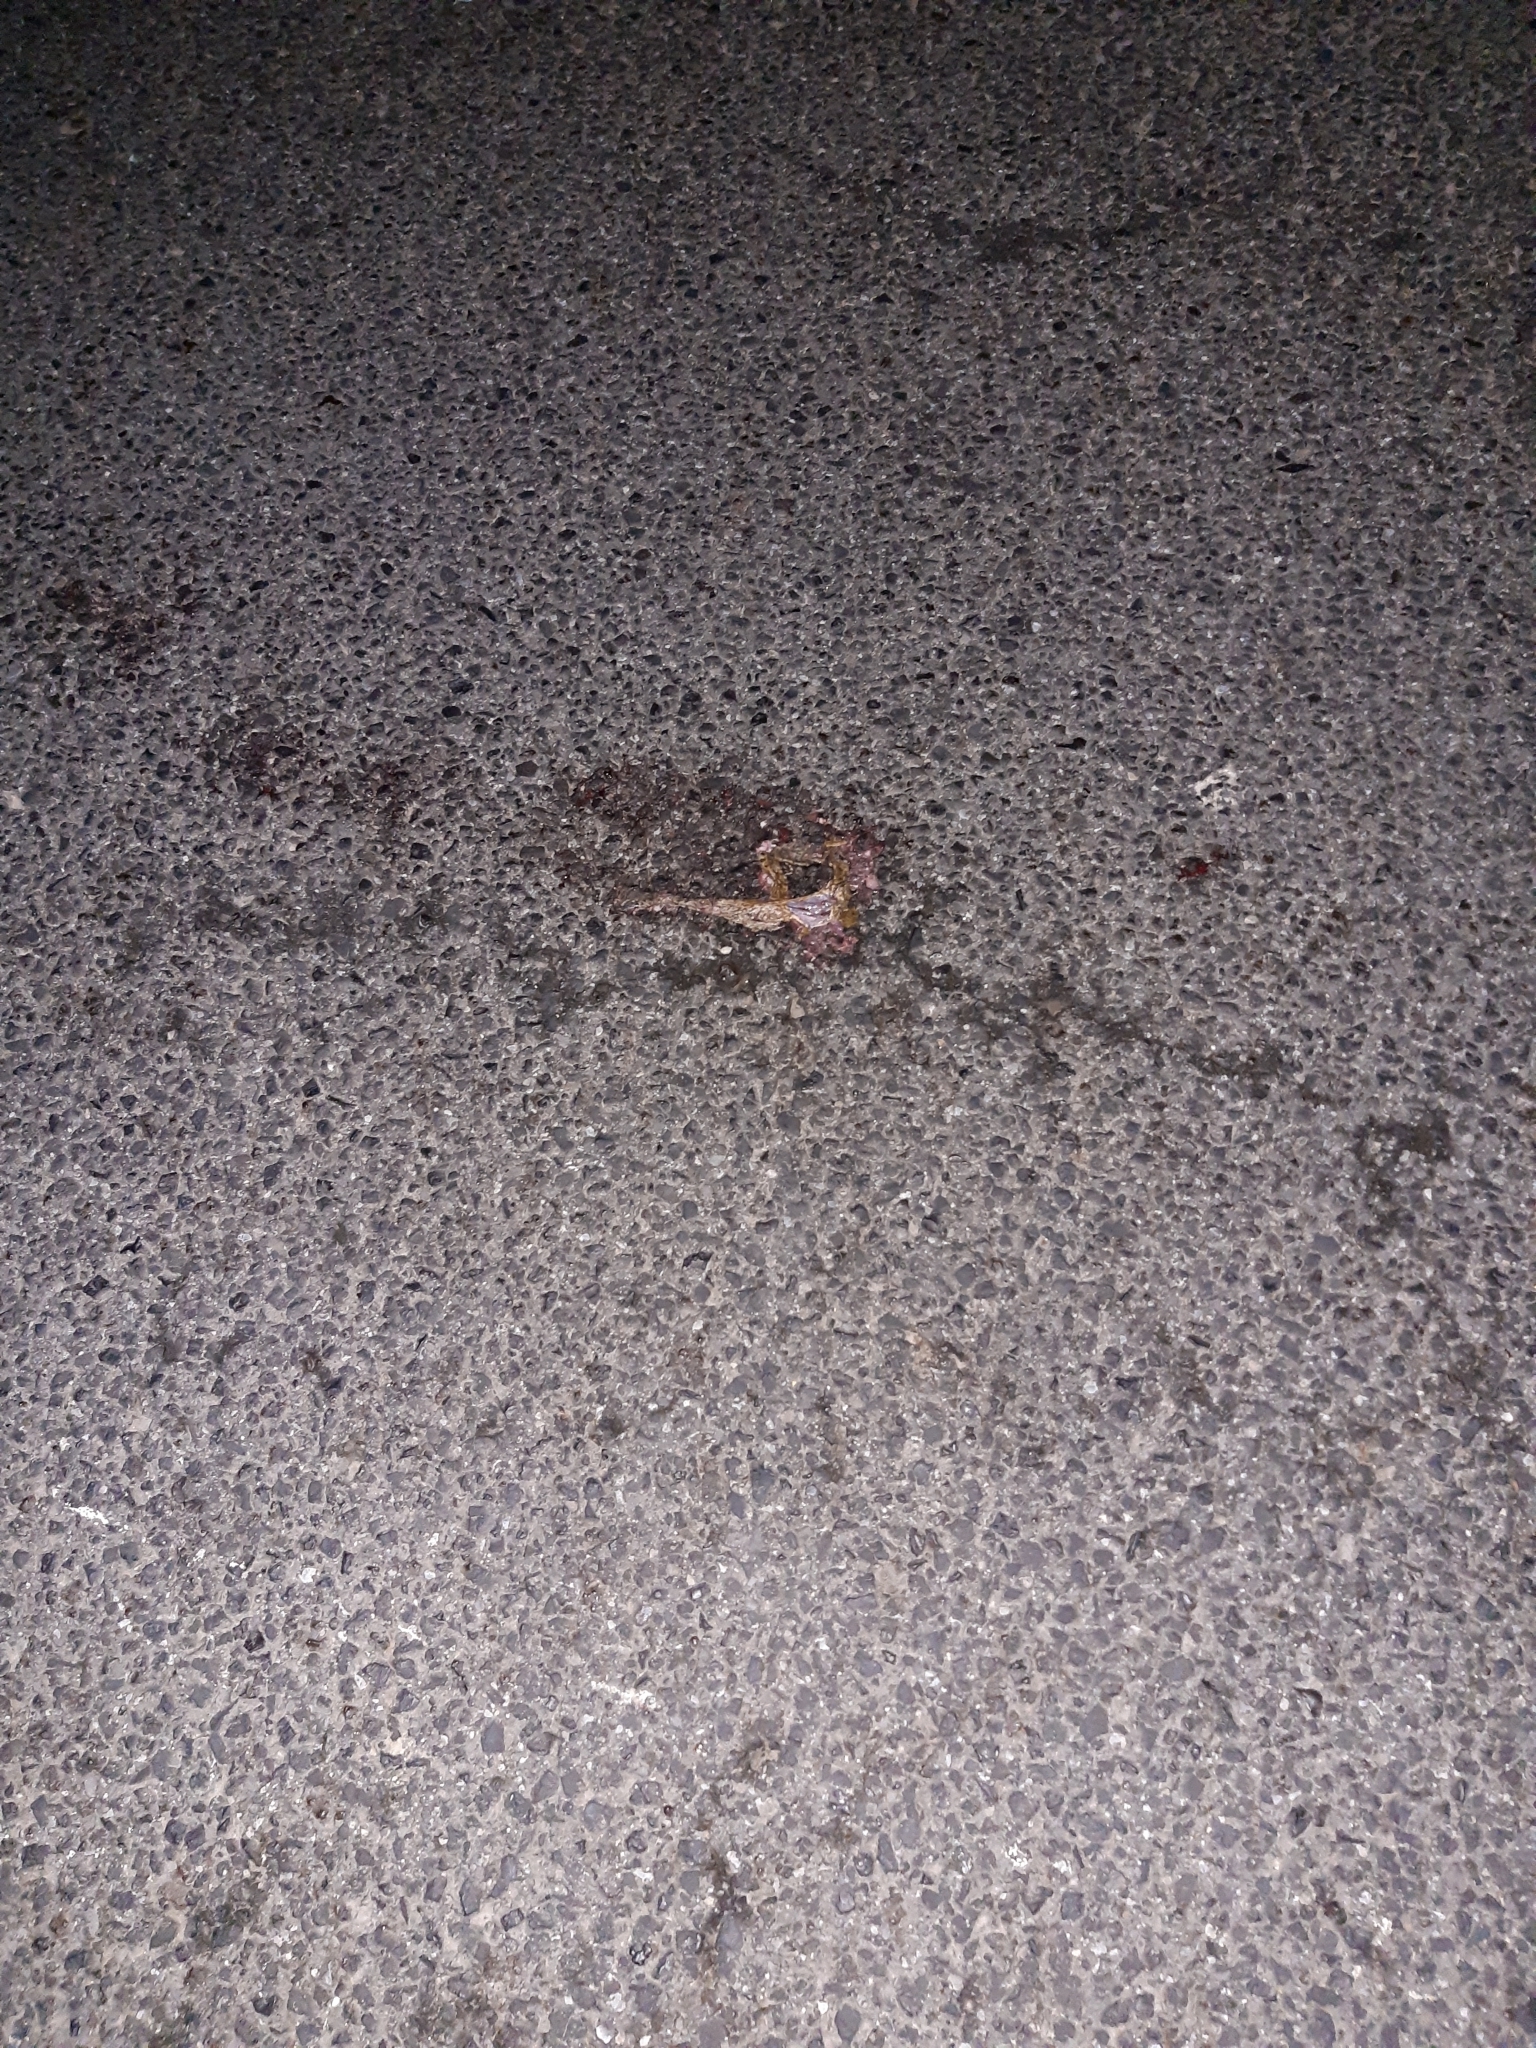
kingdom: Animalia
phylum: Chordata
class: Amphibia
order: Anura
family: Bufonidae
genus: Bufo
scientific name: Bufo bufo
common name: Common toad
